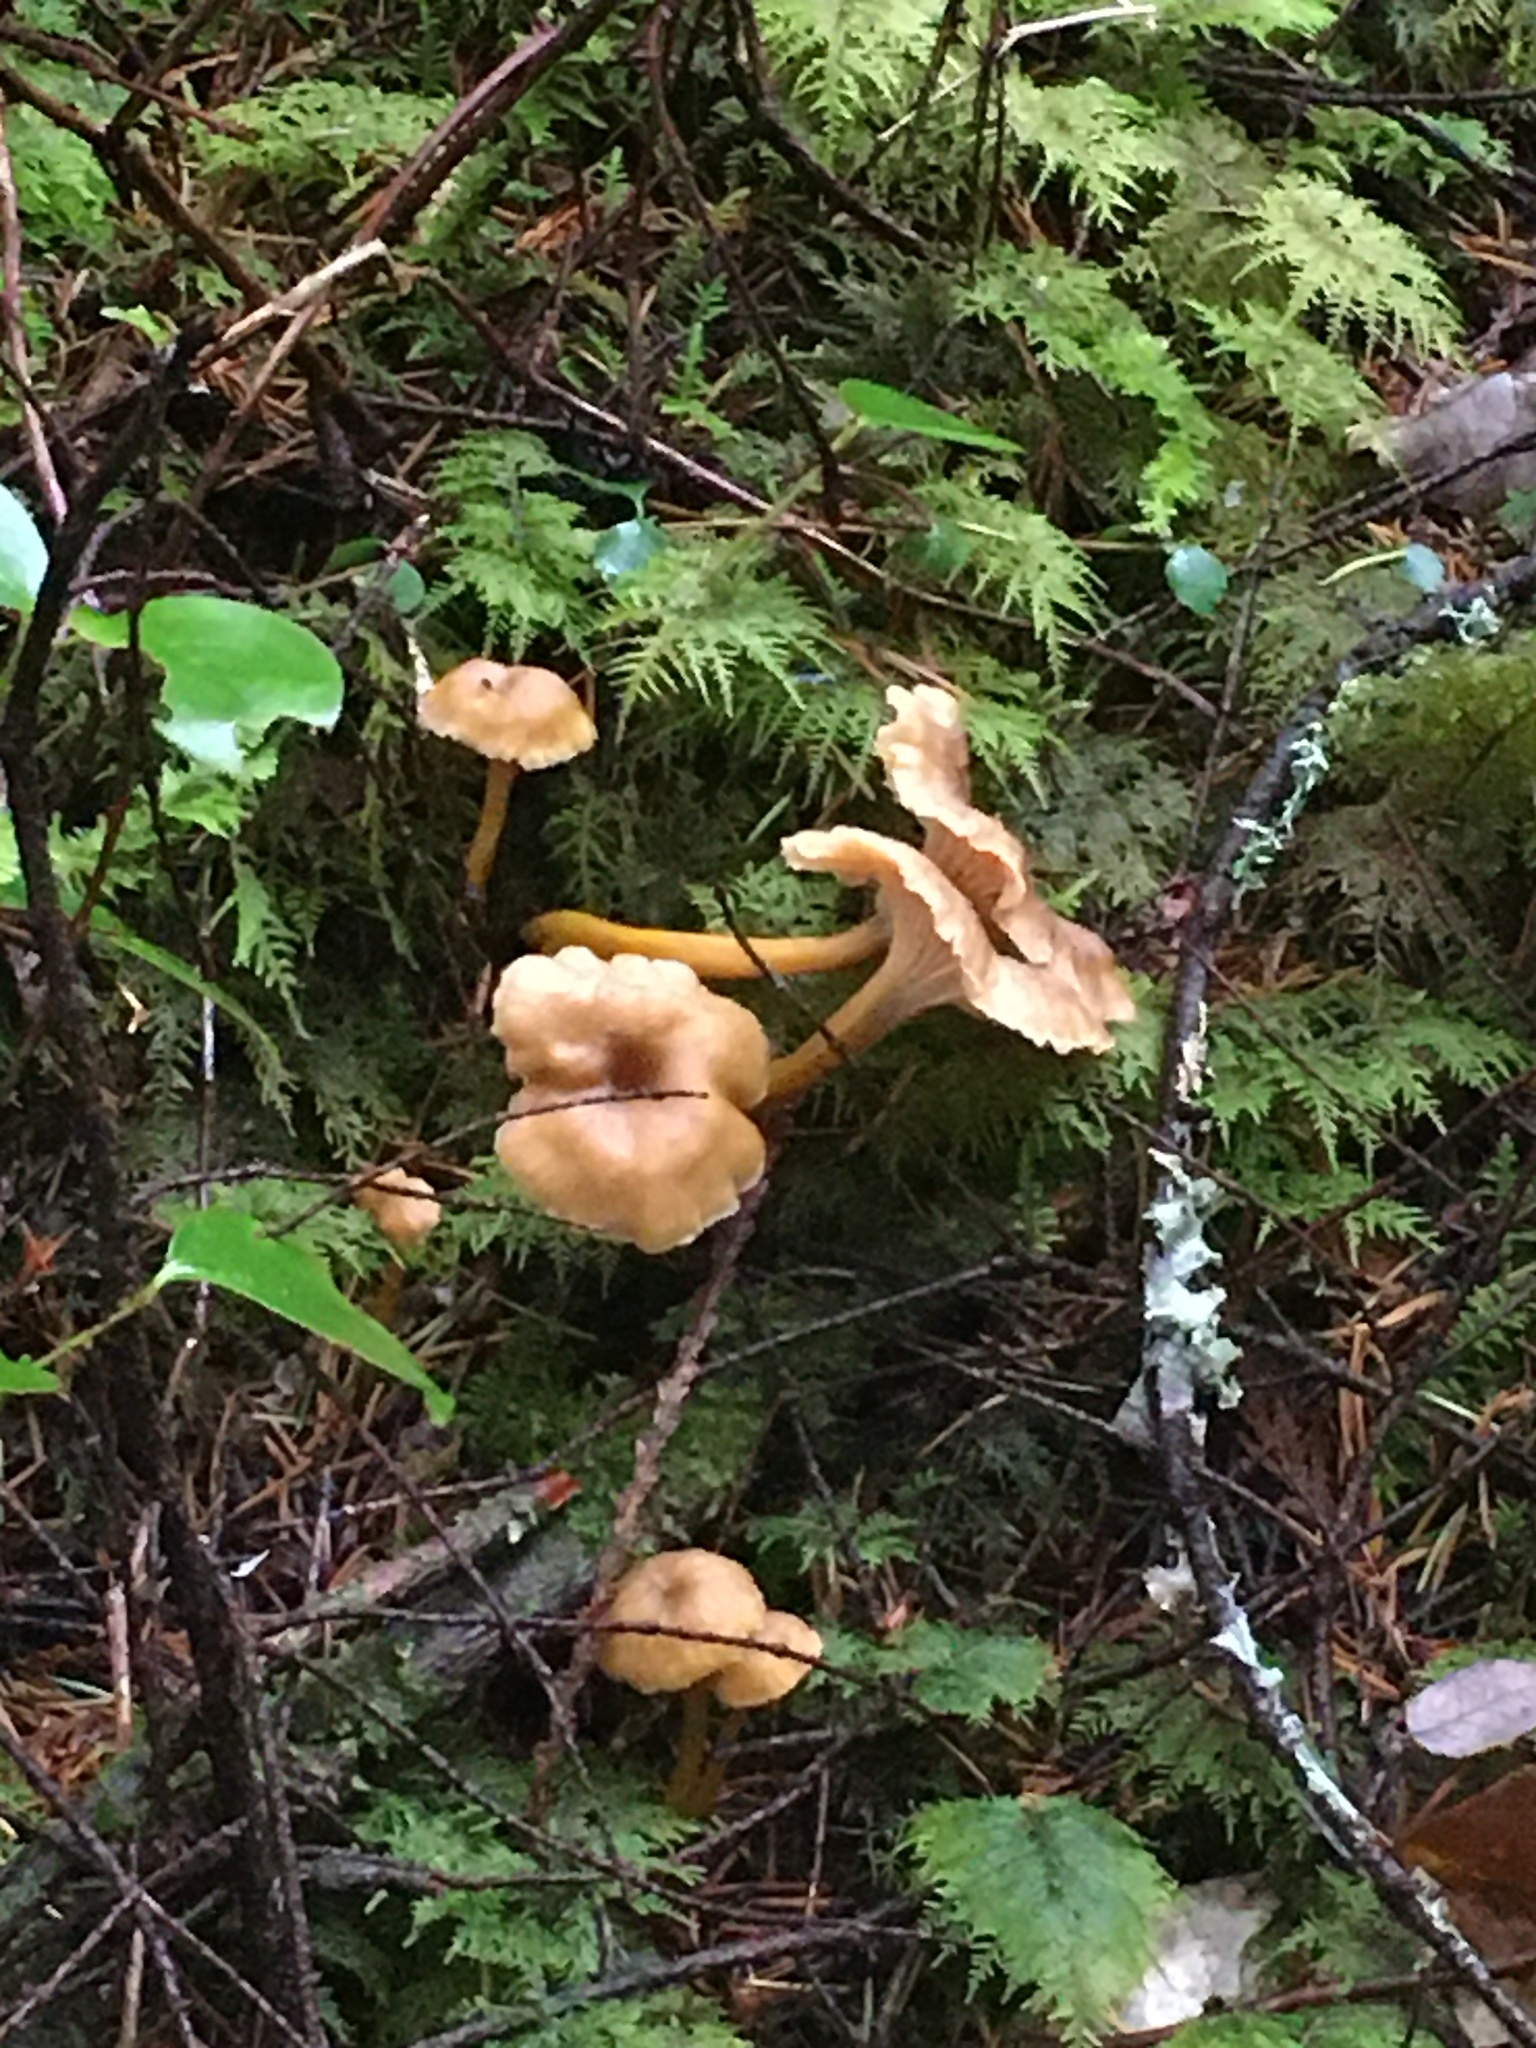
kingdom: Fungi
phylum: Basidiomycota
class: Agaricomycetes
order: Cantharellales
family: Hydnaceae
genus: Craterellus
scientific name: Craterellus tubaeformis
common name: Yellowfoot
